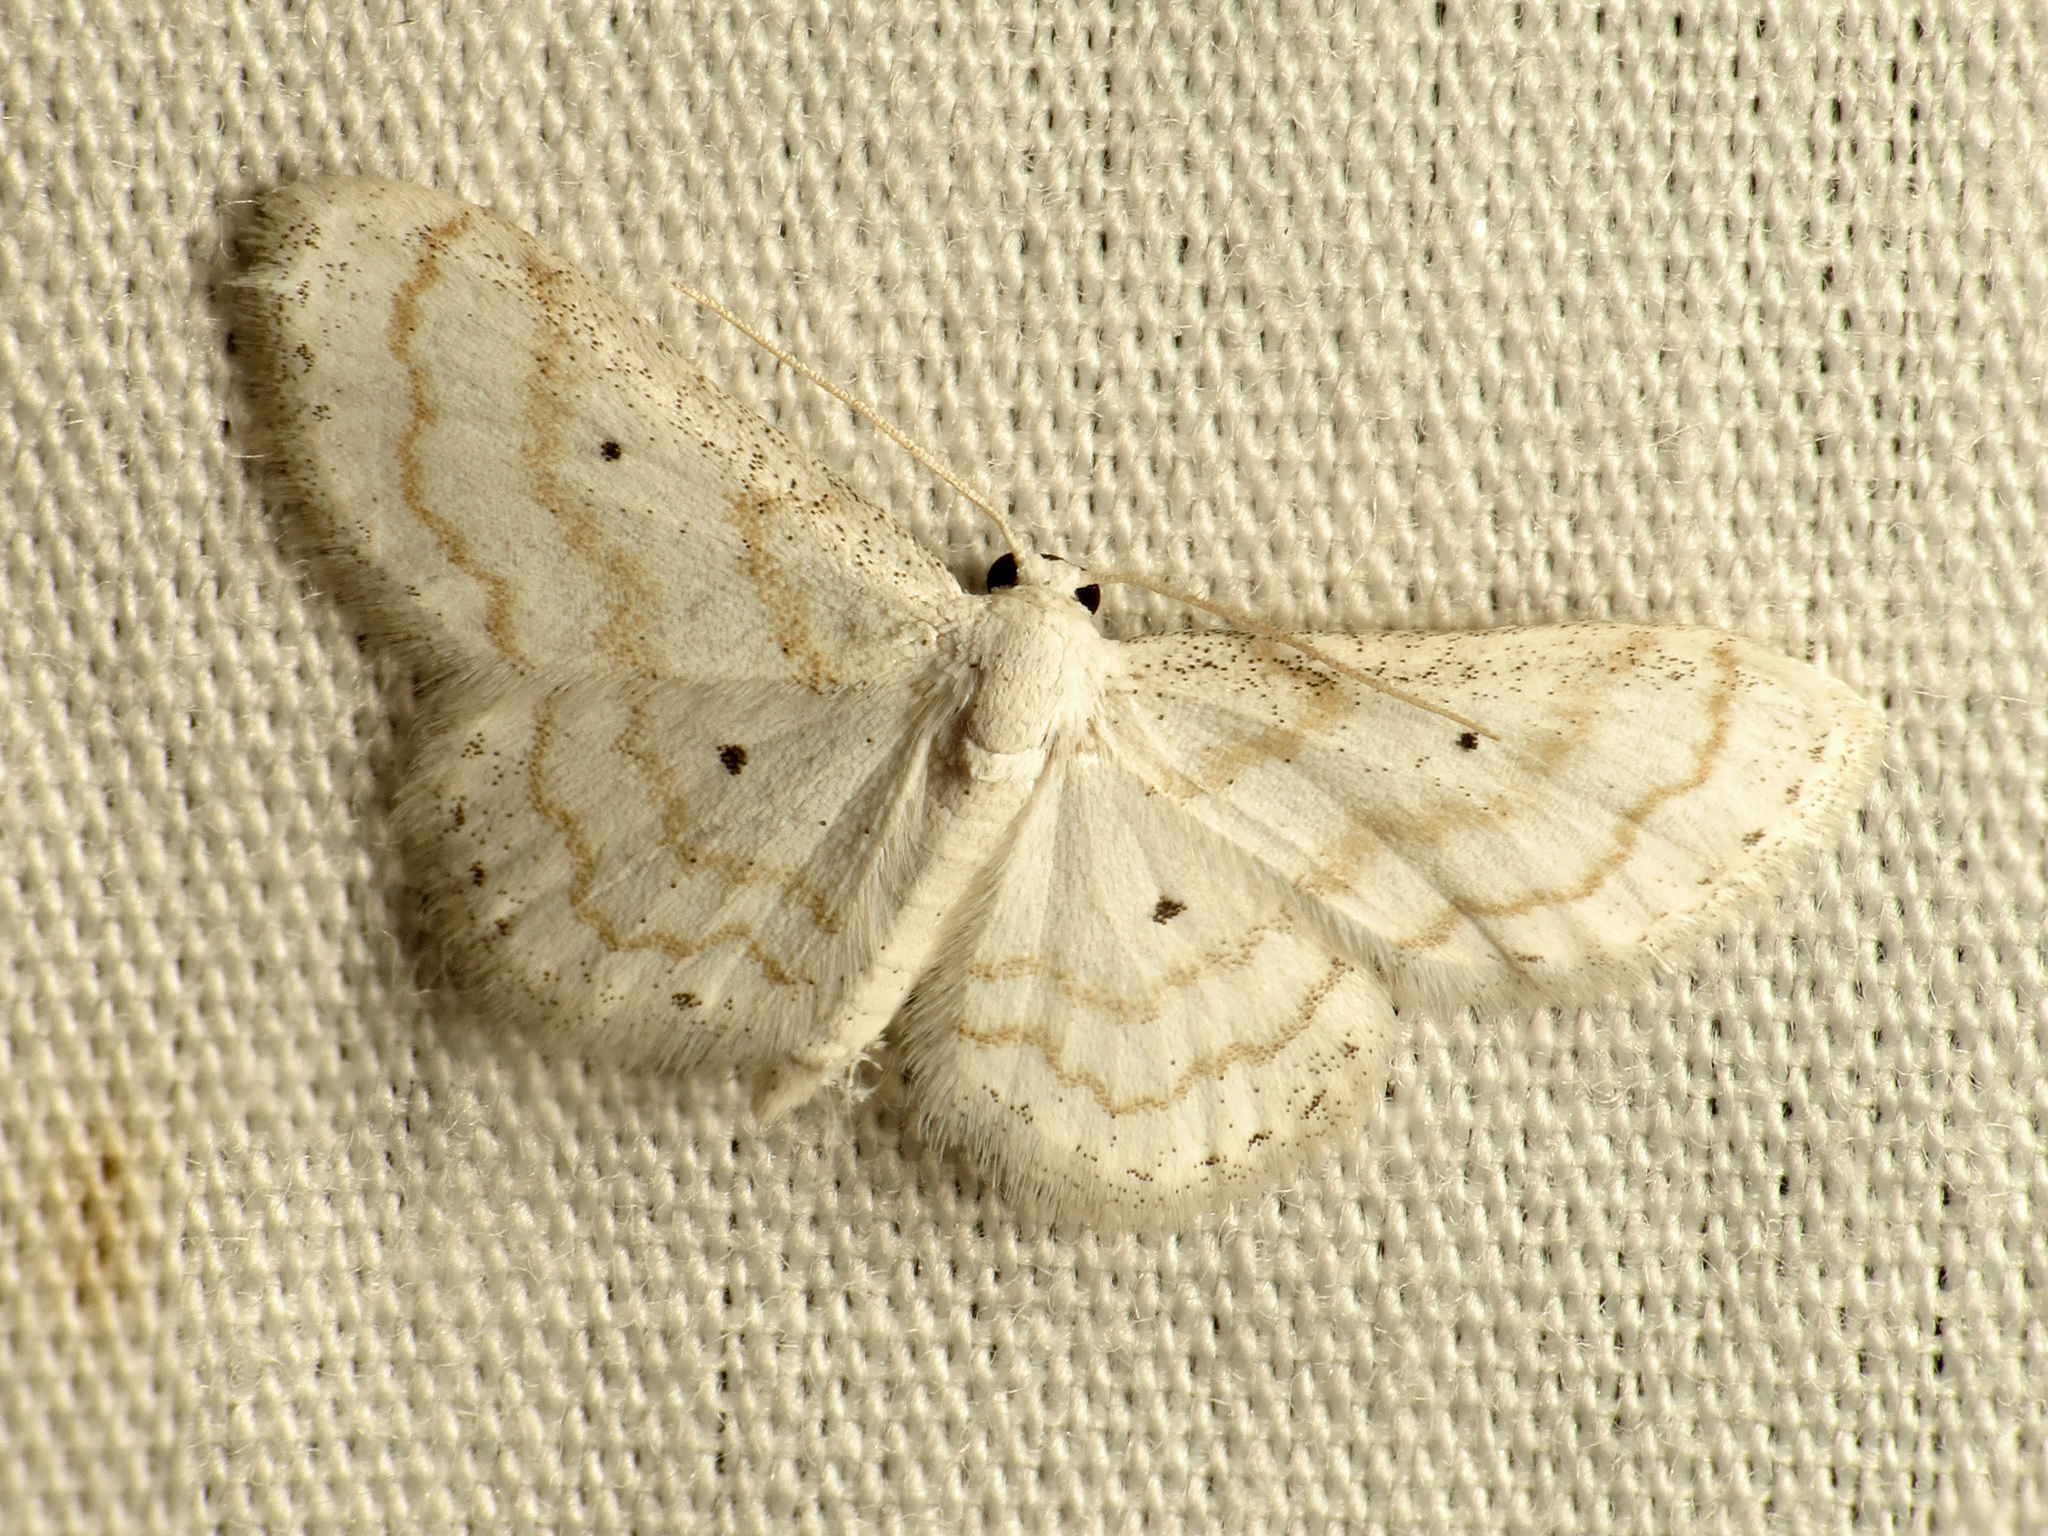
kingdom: Animalia
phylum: Arthropoda
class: Insecta
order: Lepidoptera
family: Geometridae
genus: Lobocleta
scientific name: Lobocleta peralbata
